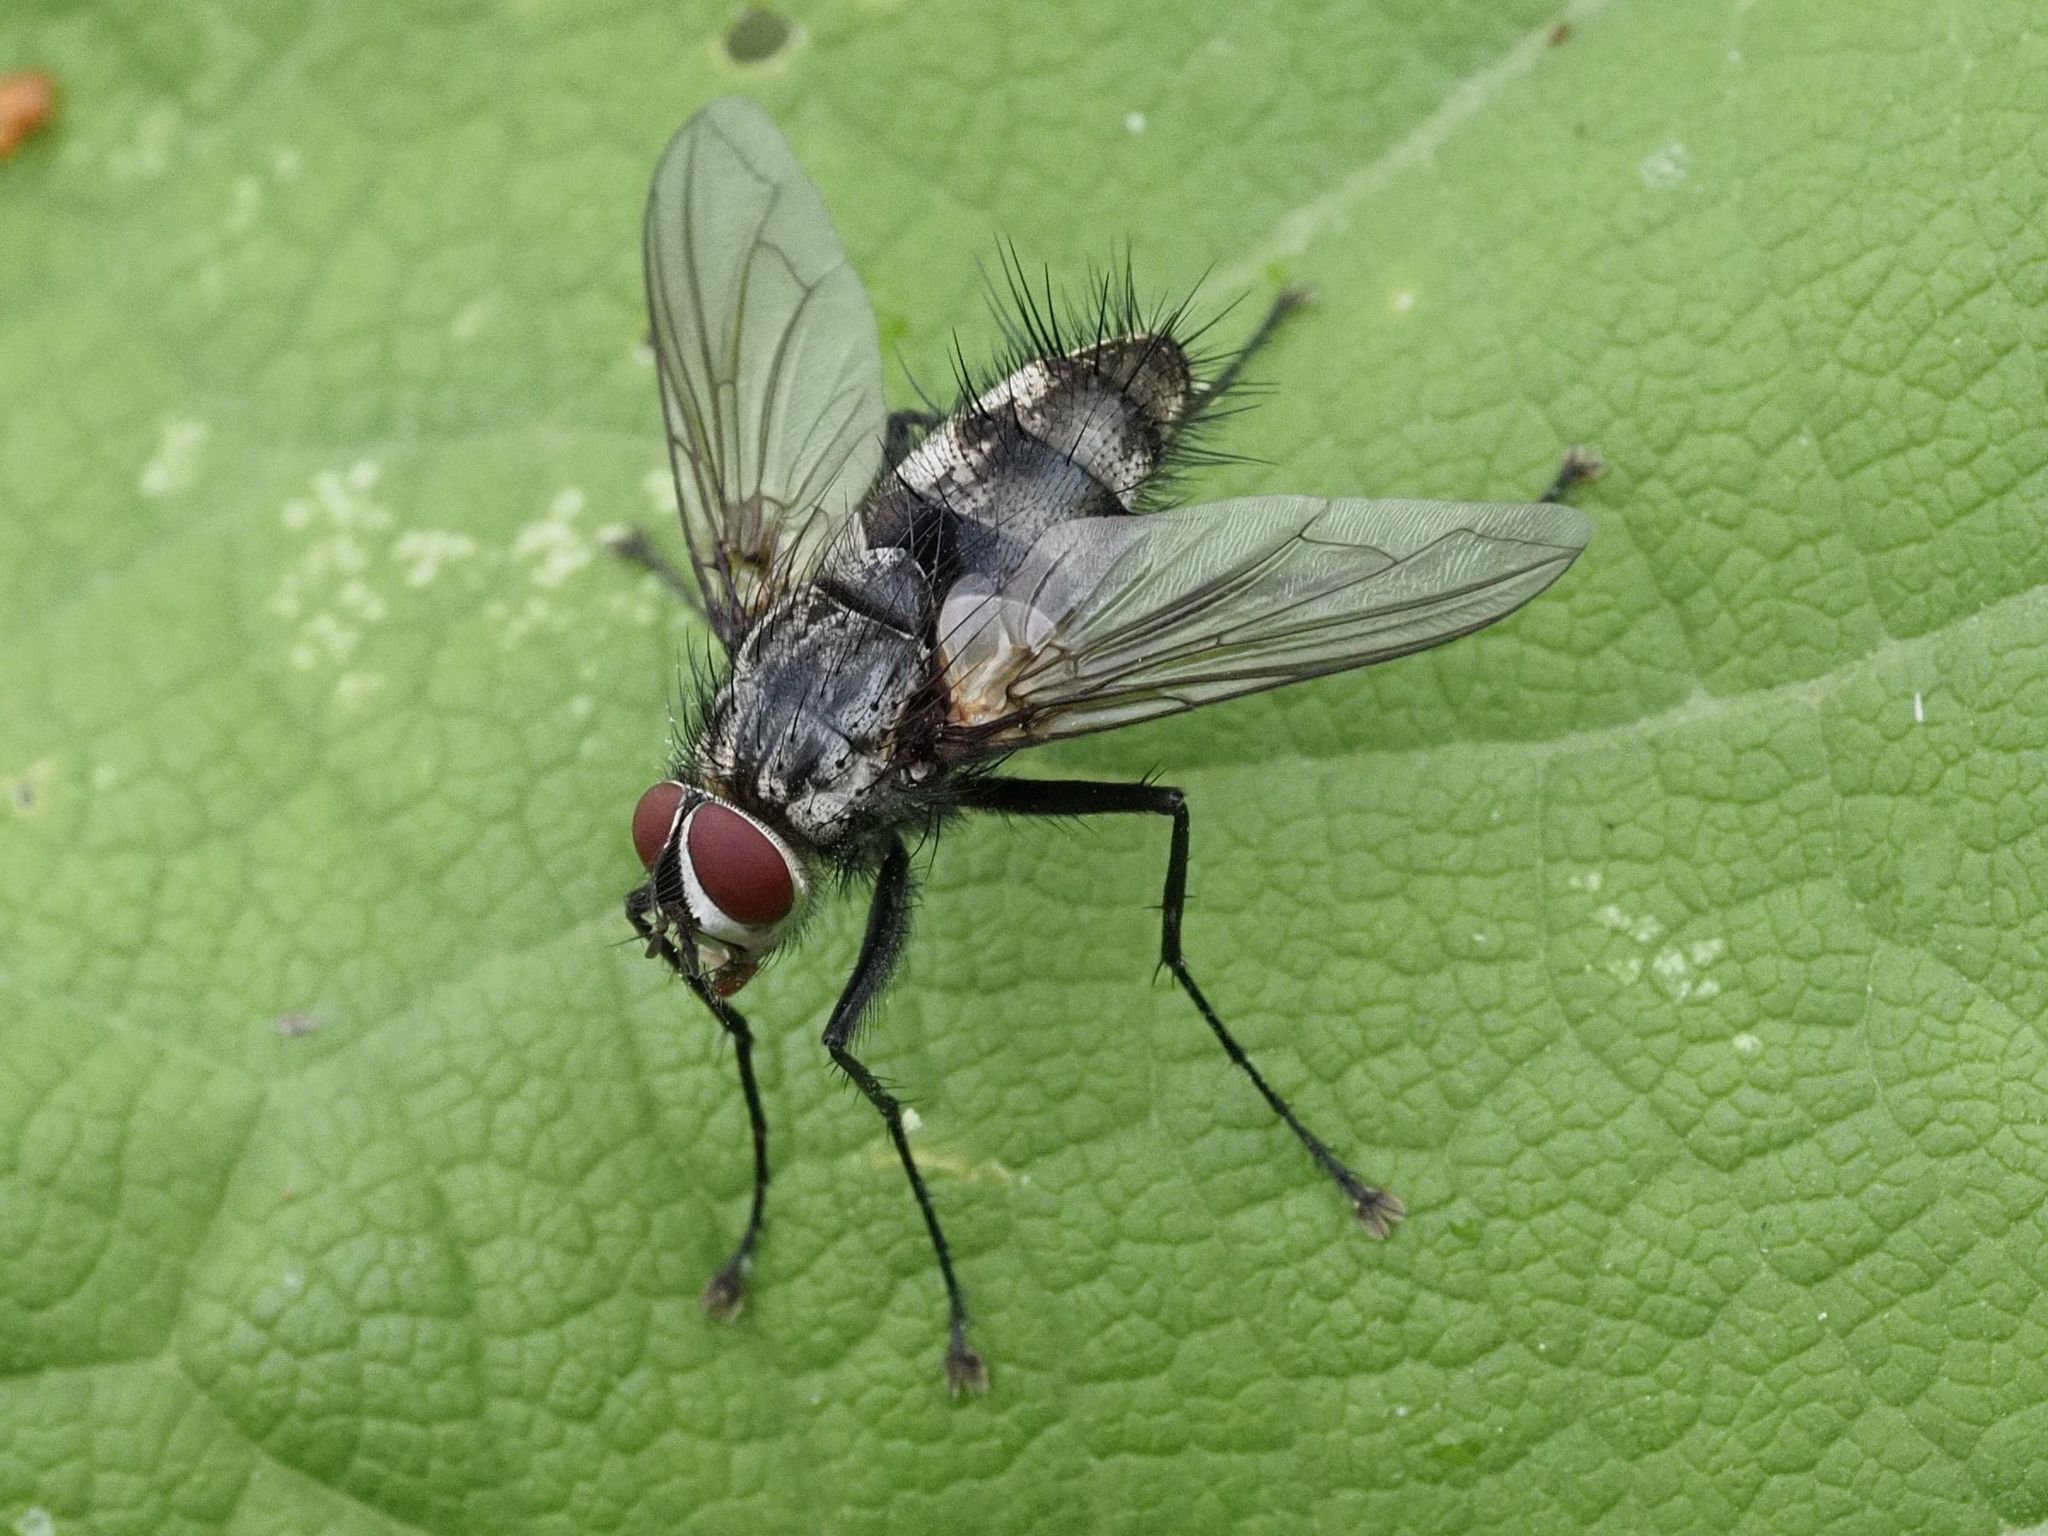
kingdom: Animalia
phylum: Arthropoda
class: Insecta
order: Diptera
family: Tachinidae
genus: Dinera
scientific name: Dinera ferina
